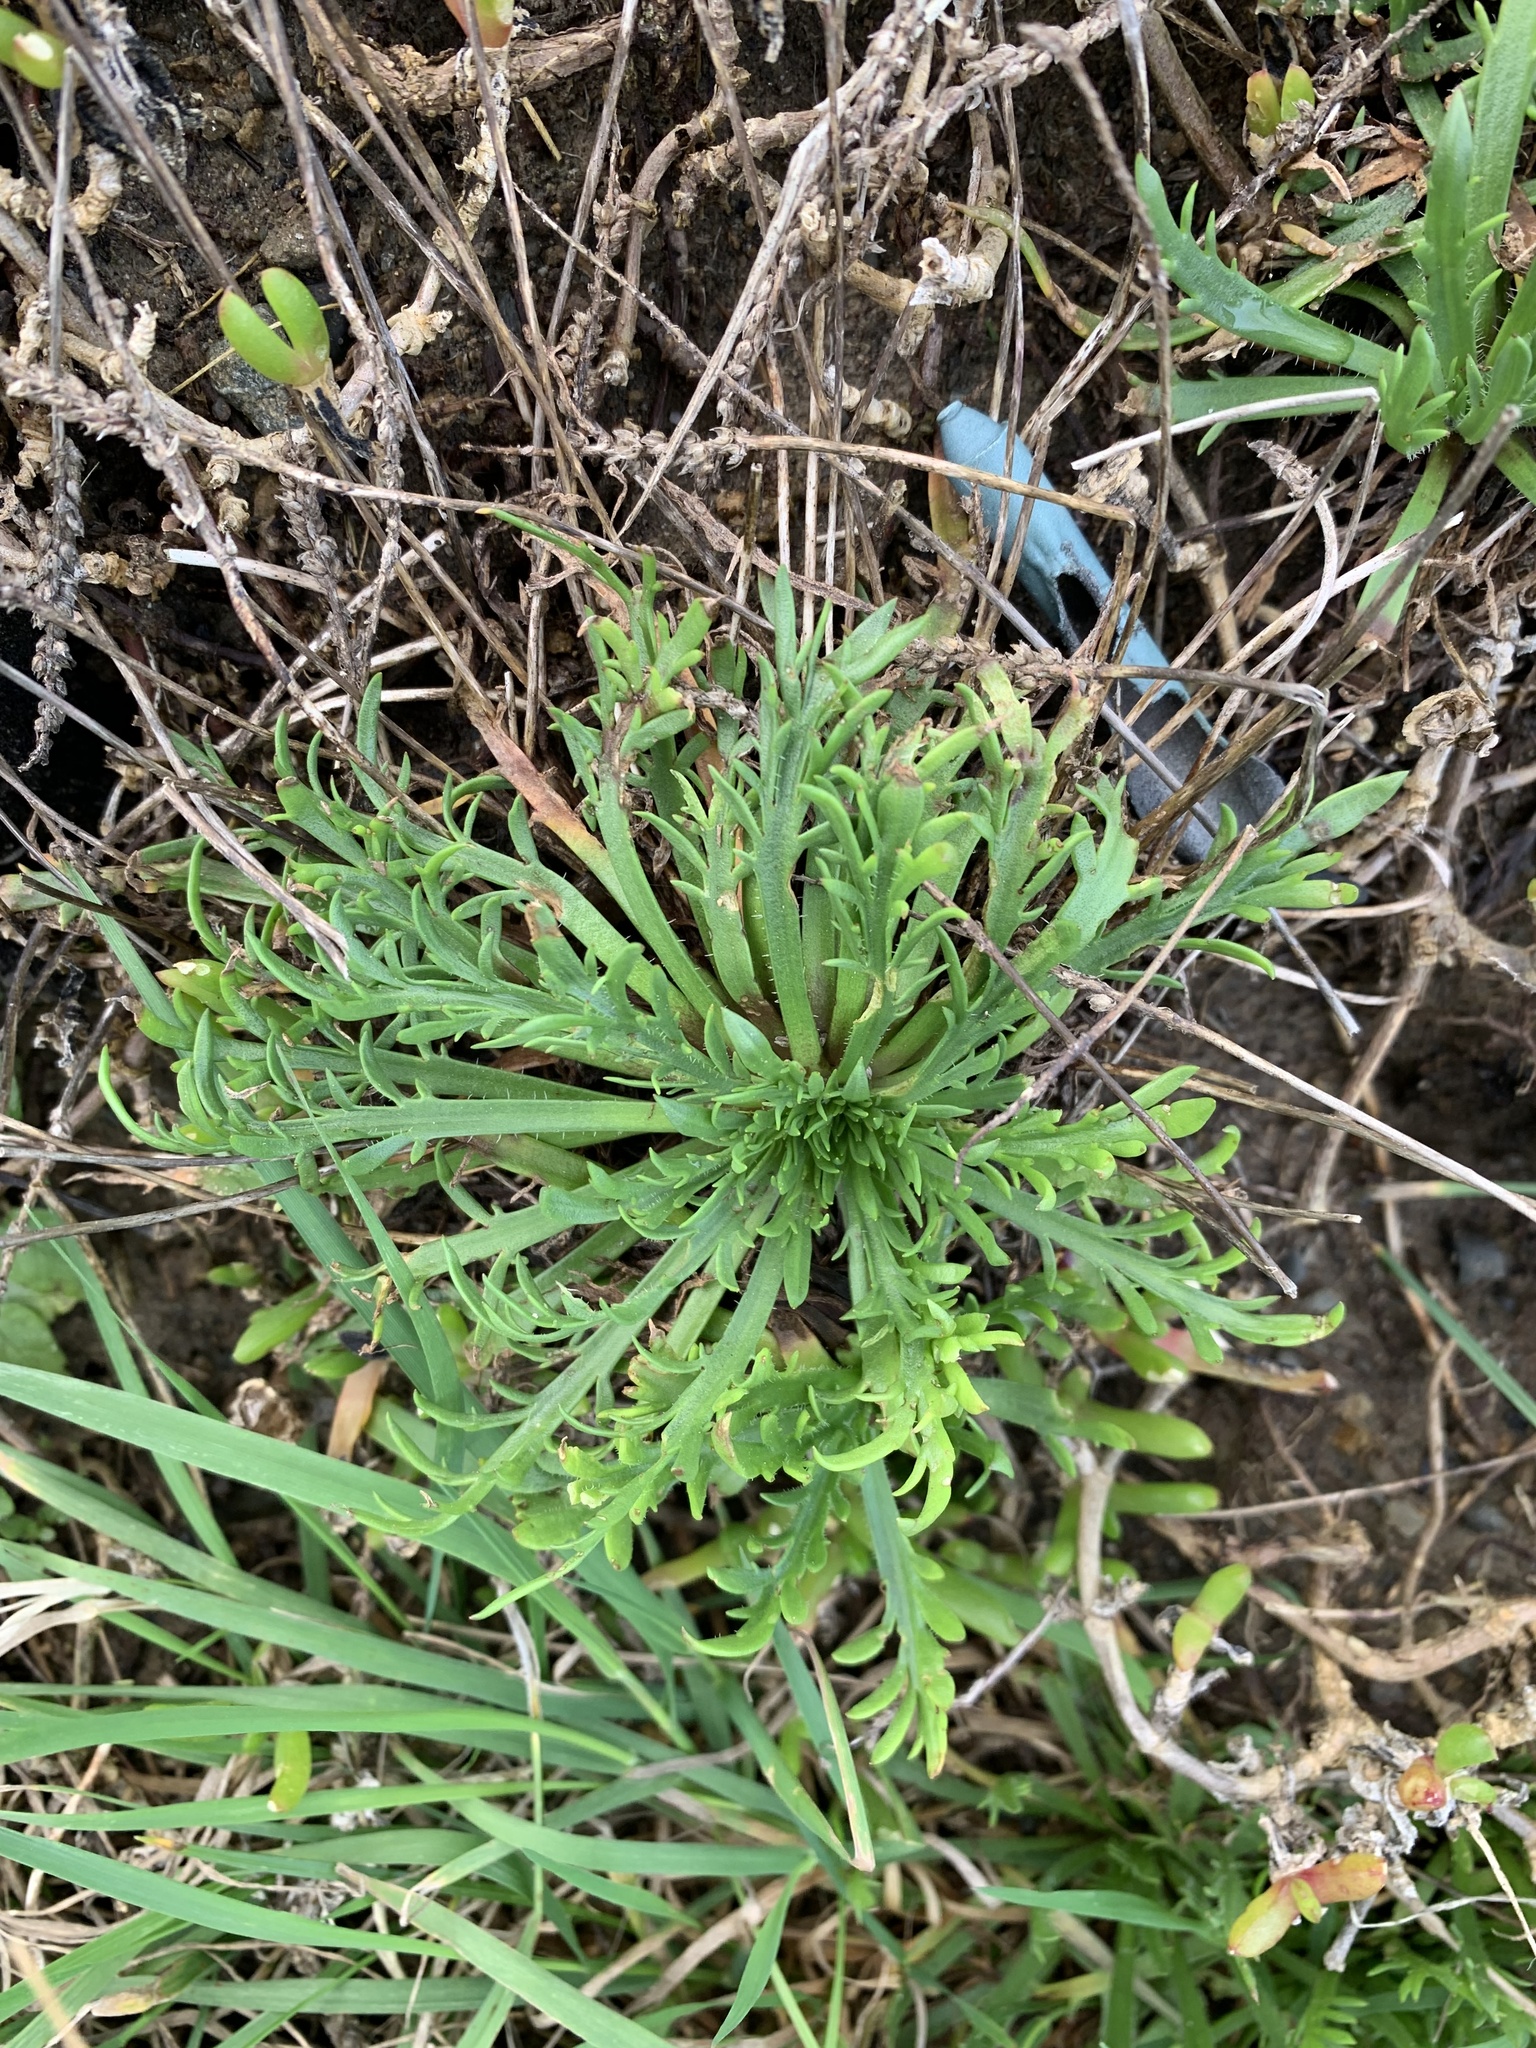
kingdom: Plantae
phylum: Tracheophyta
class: Magnoliopsida
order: Lamiales
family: Plantaginaceae
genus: Plantago
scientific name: Plantago coronopus
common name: Buck's-horn plantain
